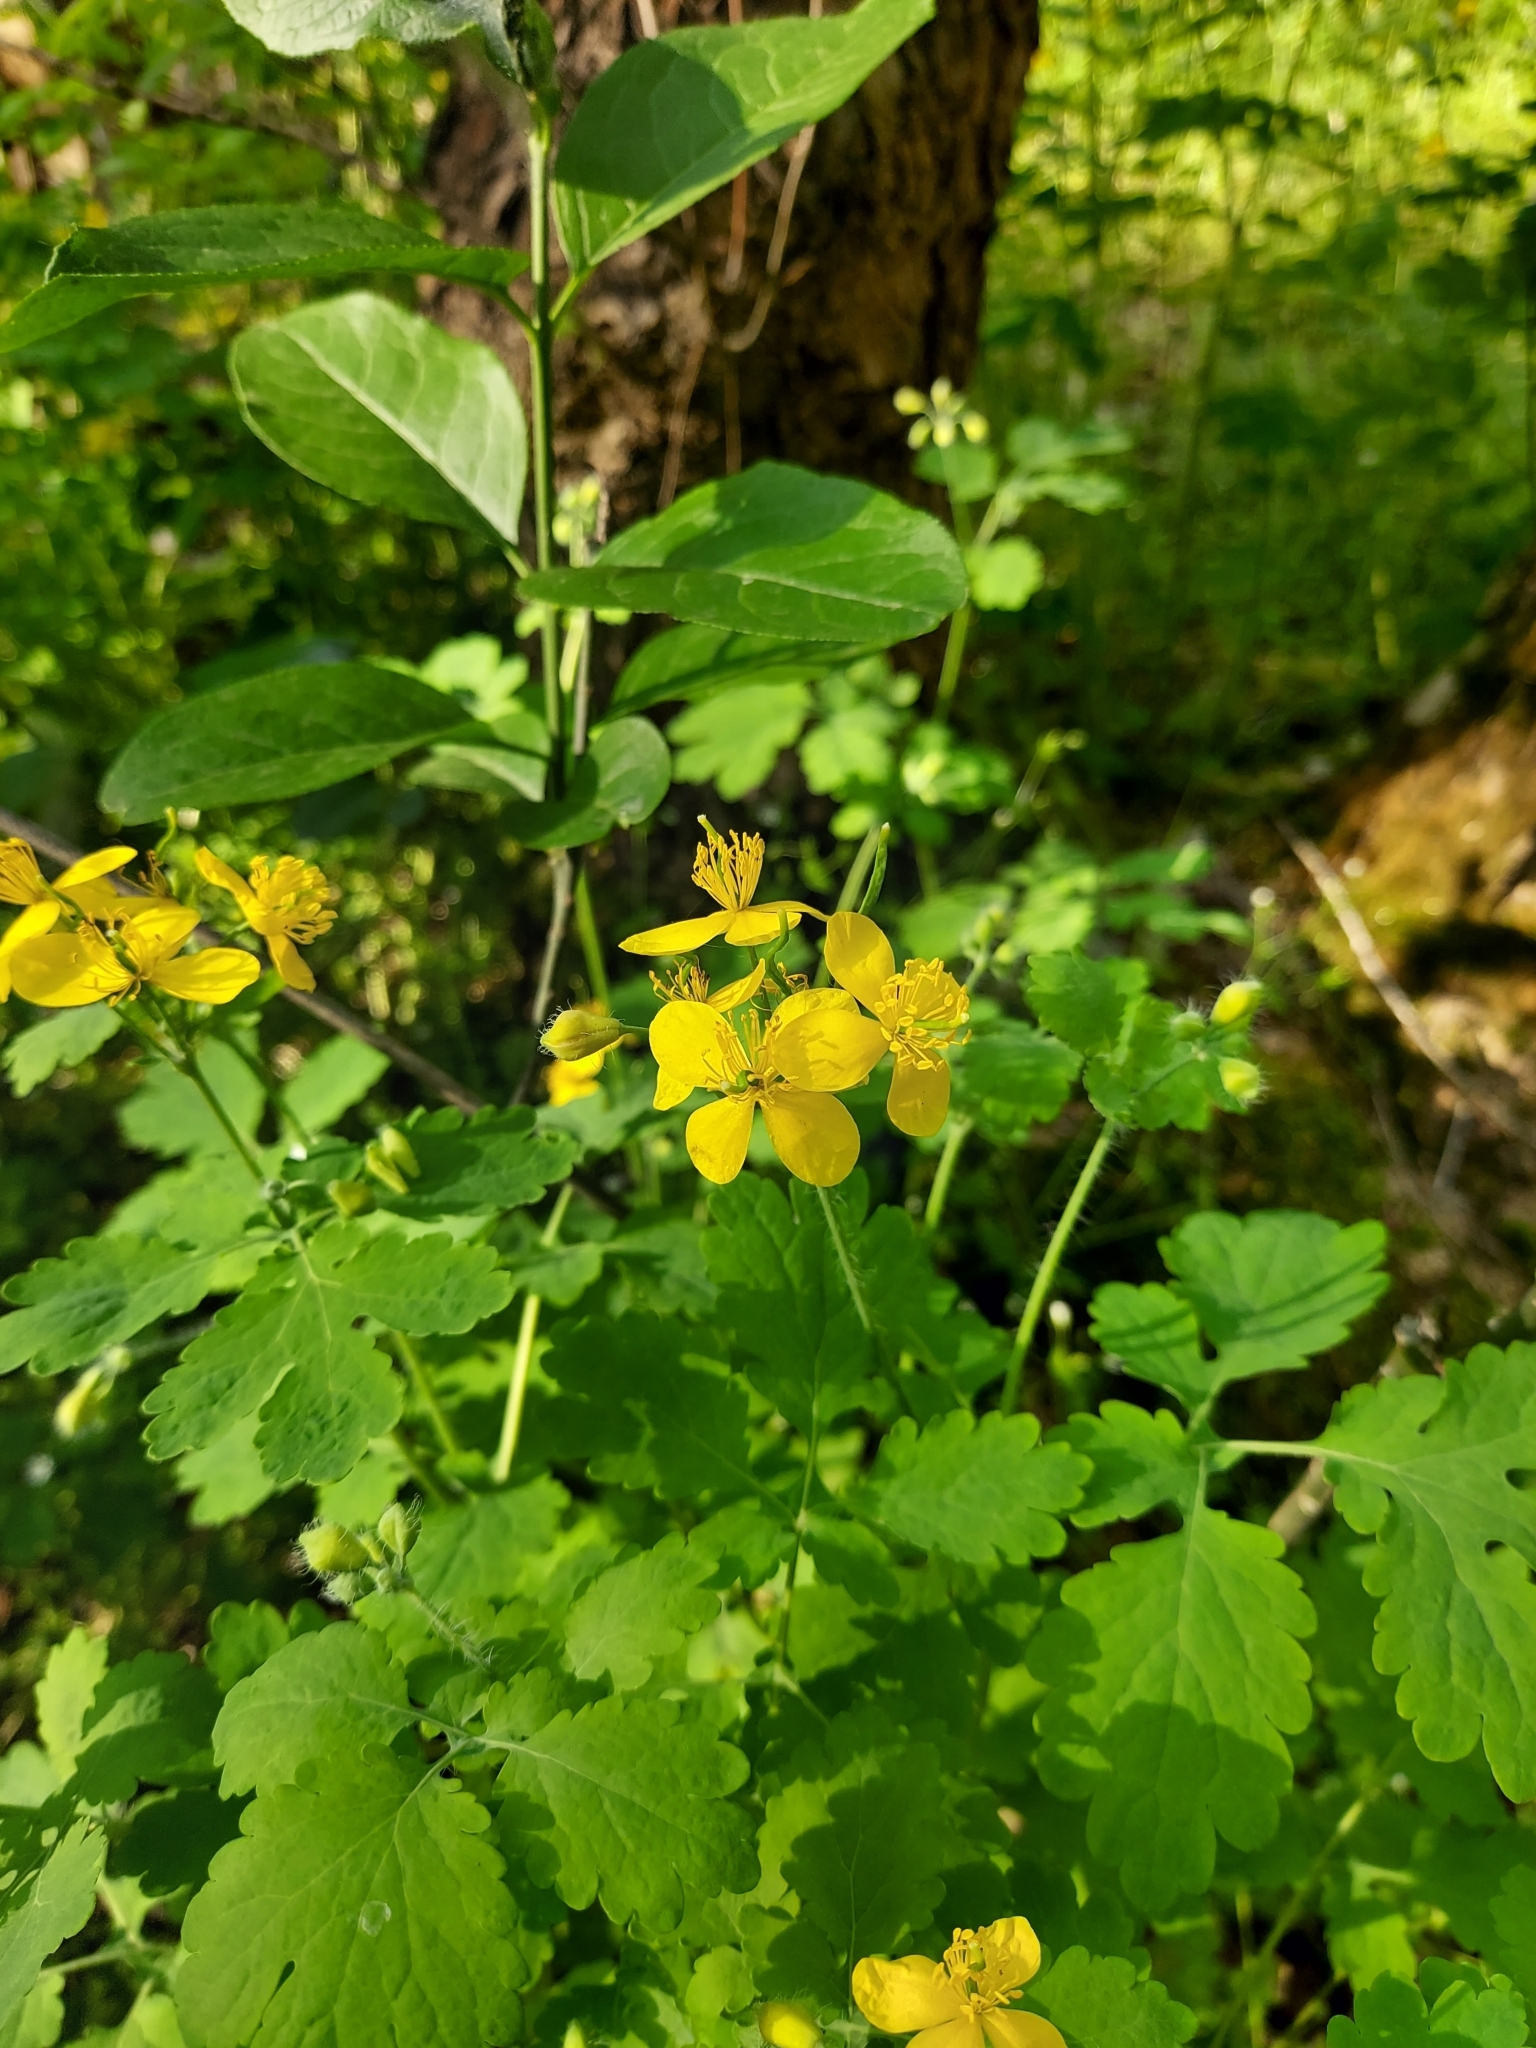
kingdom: Plantae
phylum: Tracheophyta
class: Magnoliopsida
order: Ranunculales
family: Papaveraceae
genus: Chelidonium
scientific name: Chelidonium majus
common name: Greater celandine
